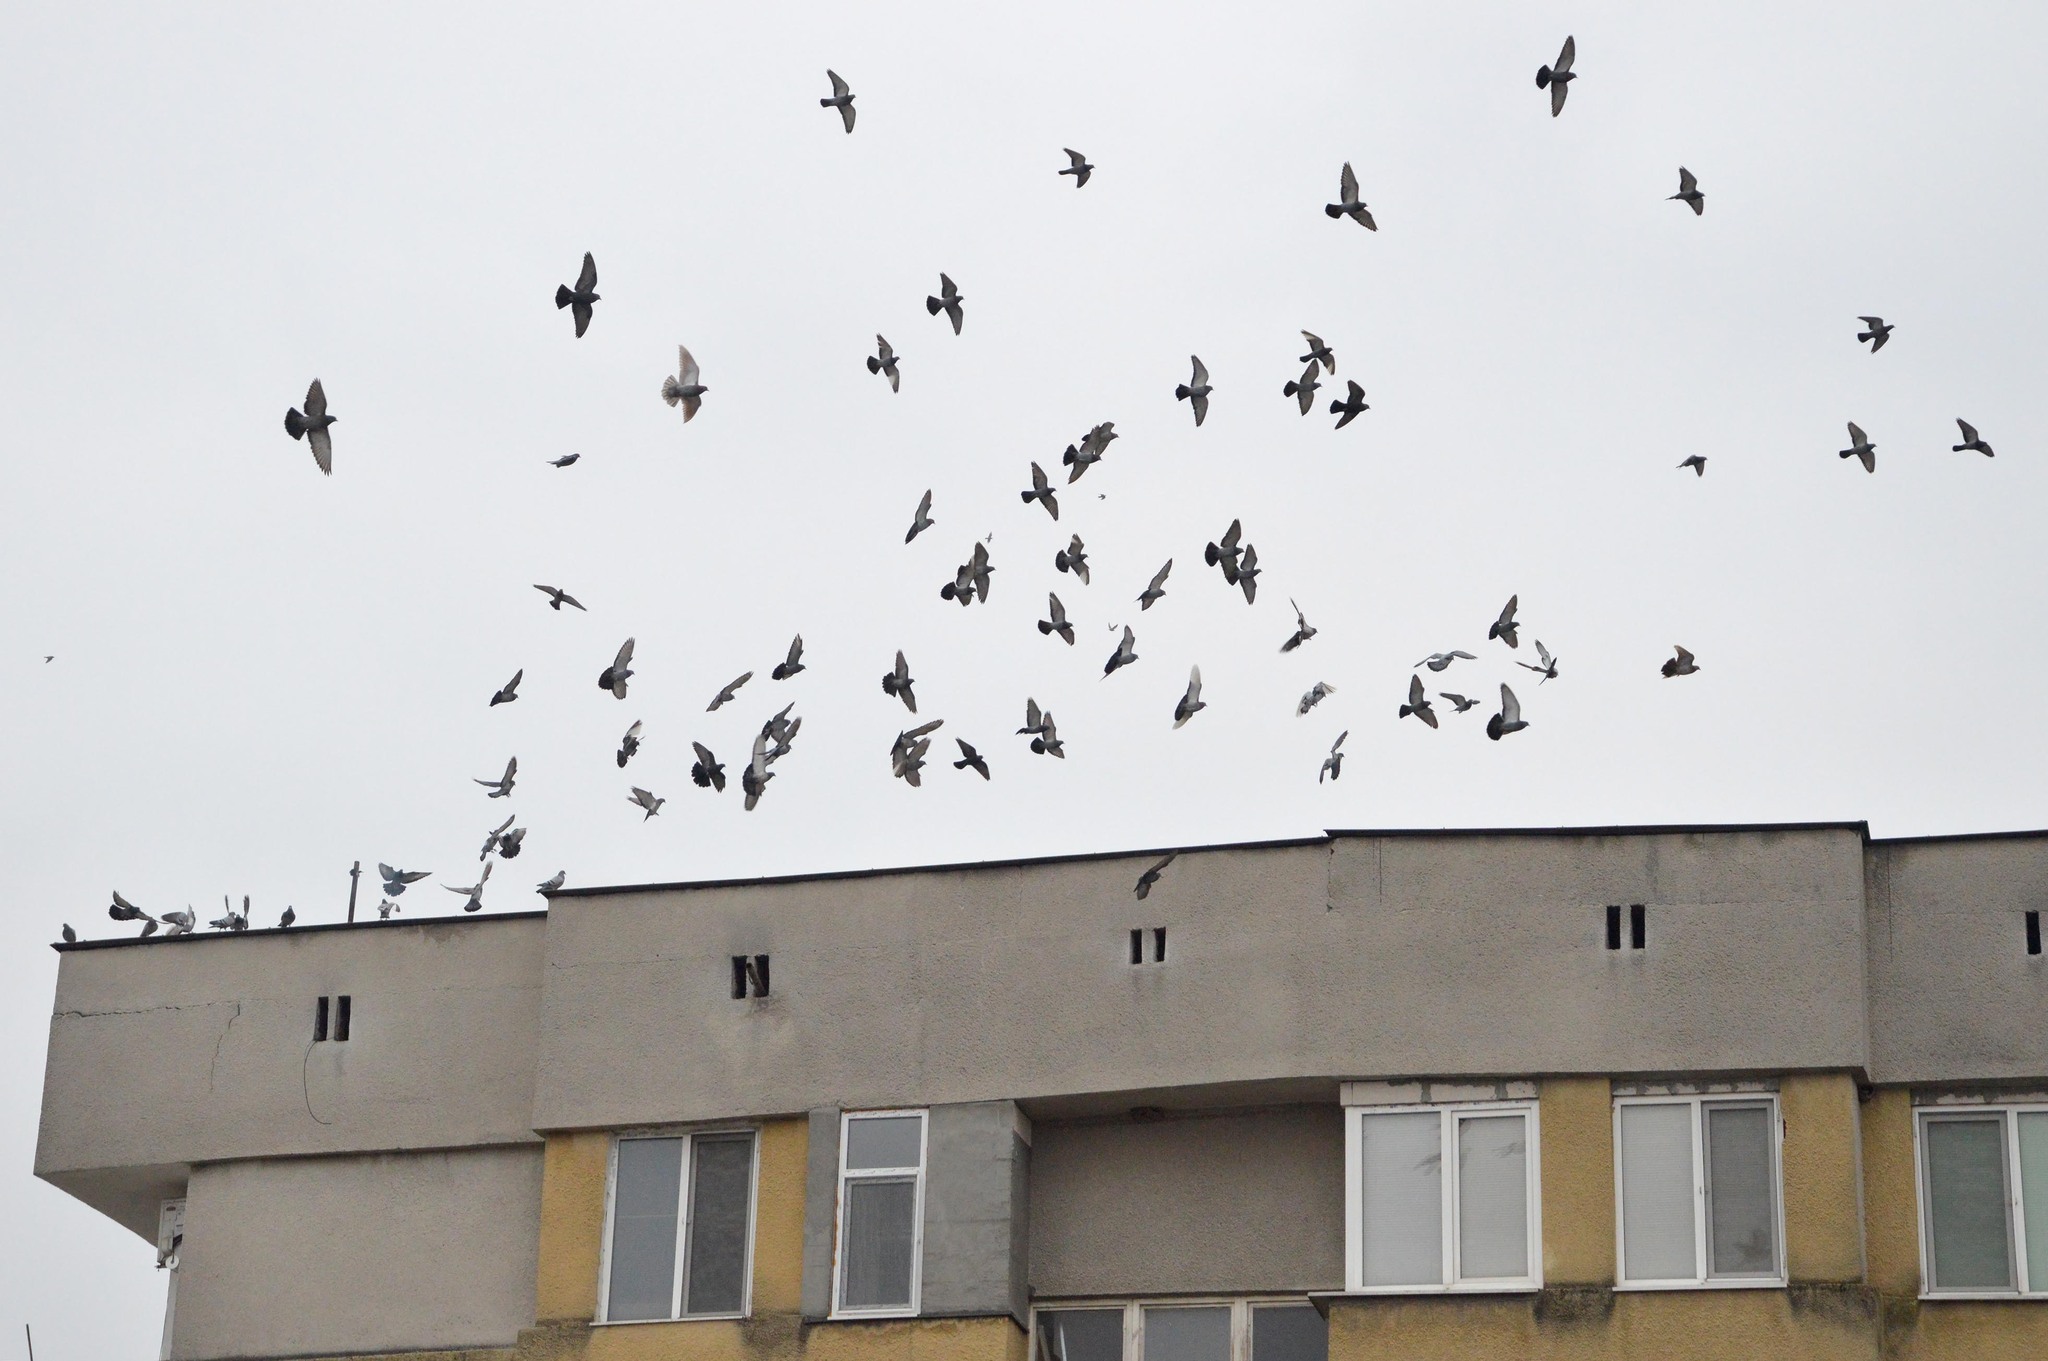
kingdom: Animalia
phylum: Chordata
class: Aves
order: Columbiformes
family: Columbidae
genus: Columba
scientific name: Columba livia
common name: Rock pigeon
